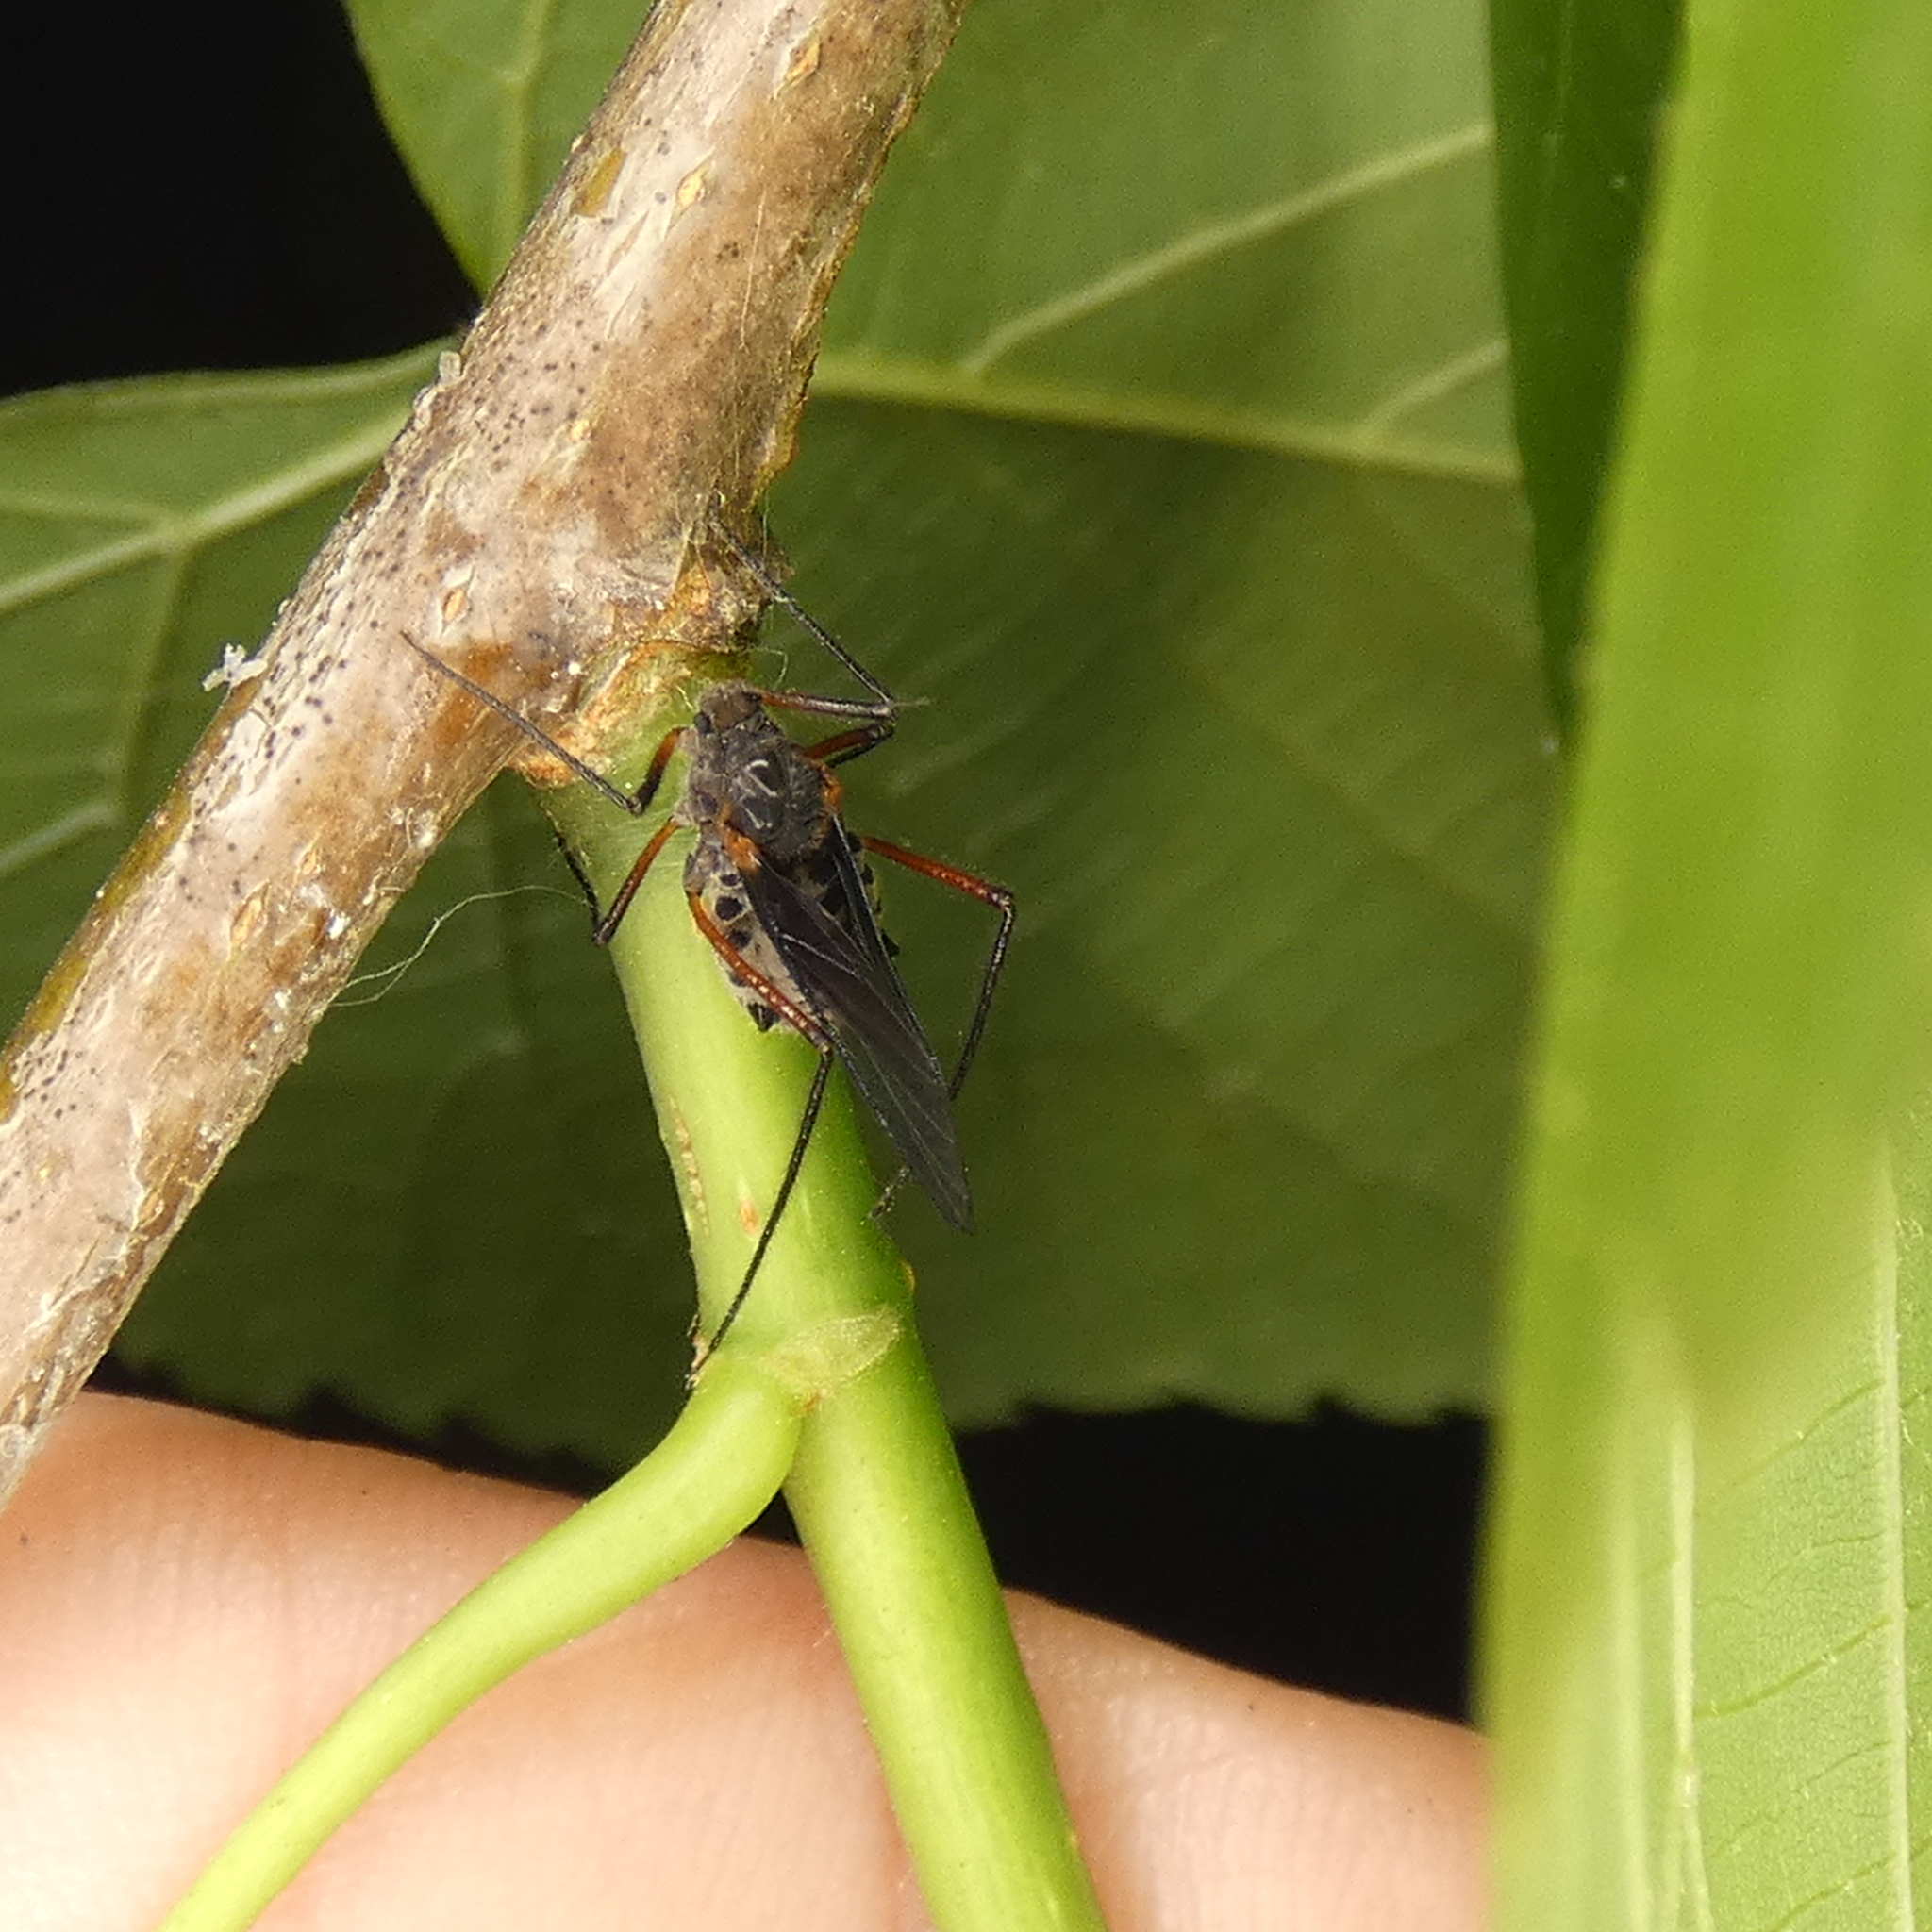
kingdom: Animalia
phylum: Arthropoda
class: Insecta
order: Hemiptera
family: Aphididae
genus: Longistigma
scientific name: Longistigma caryae
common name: Giant bark aphid
